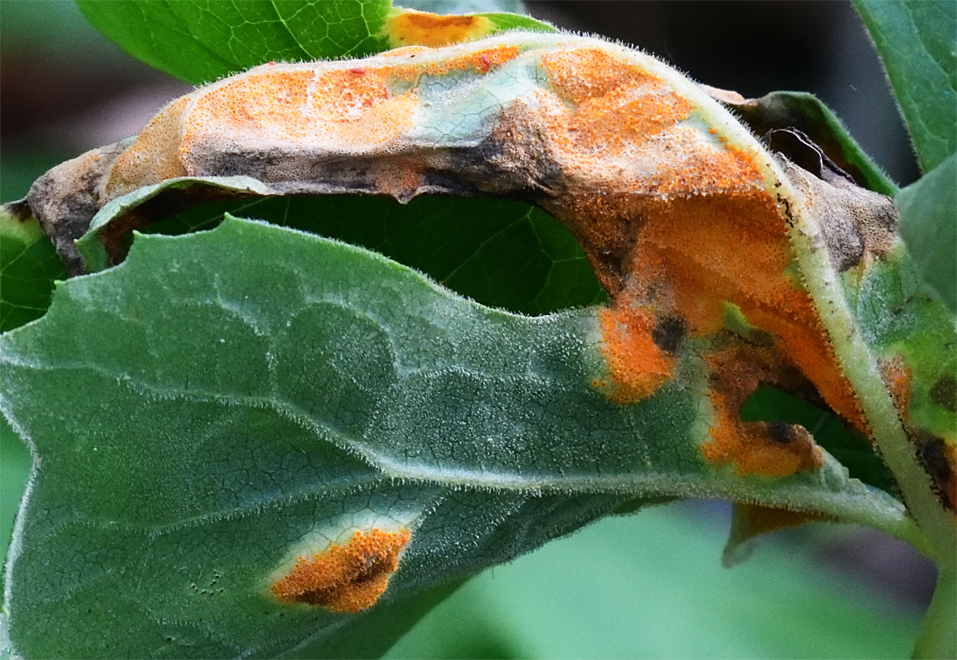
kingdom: Fungi
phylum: Basidiomycota
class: Pucciniomycetes
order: Pucciniales
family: Pucciniaceae
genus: Puccinia
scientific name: Puccinia podophylli
